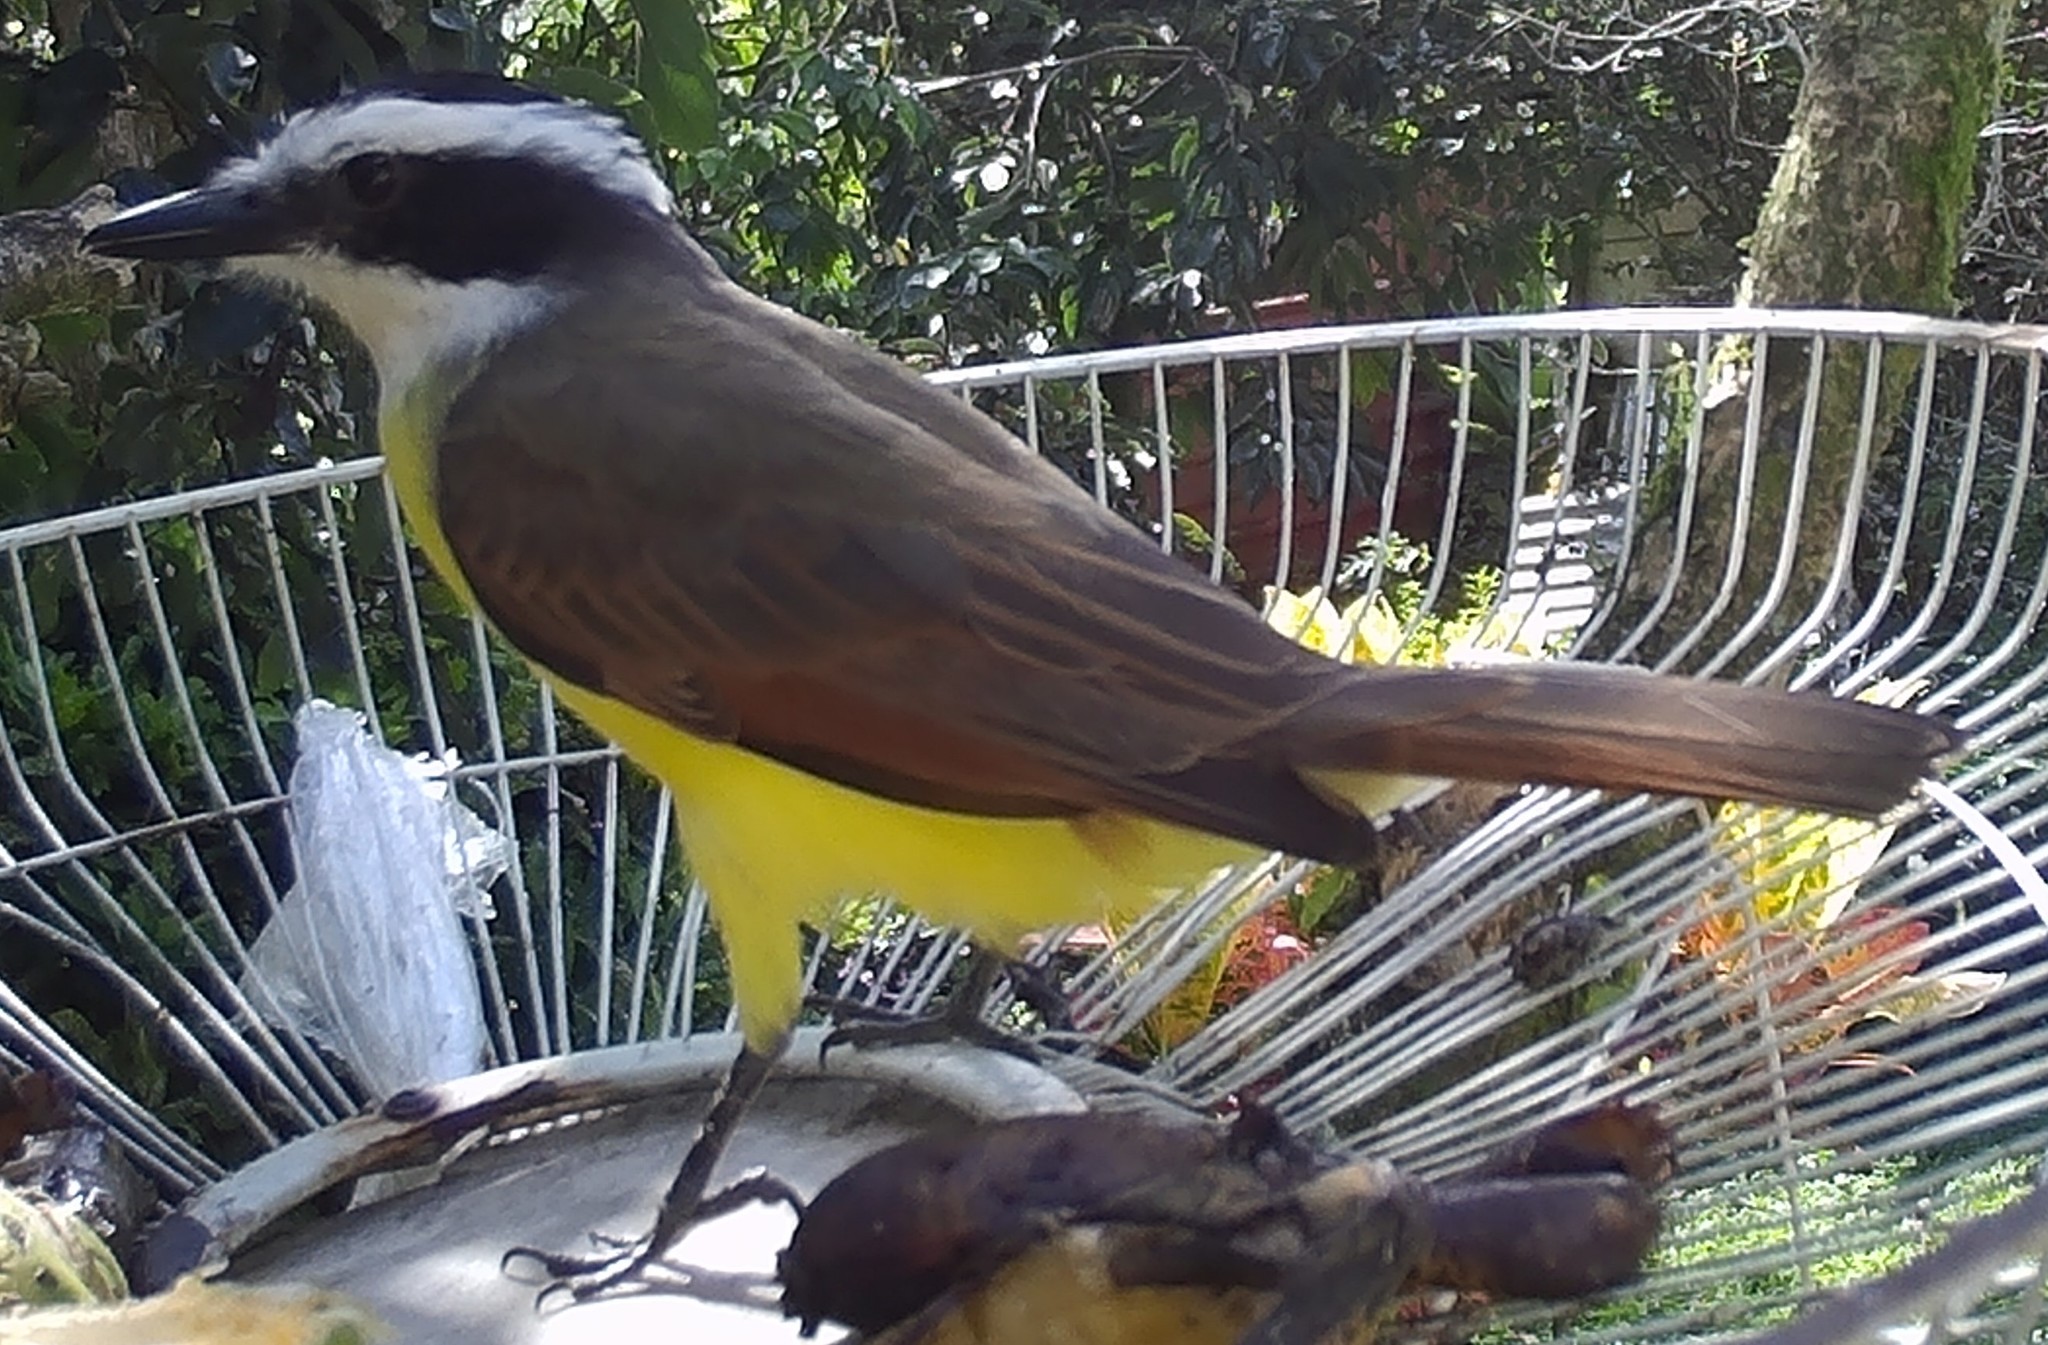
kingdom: Animalia
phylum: Chordata
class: Aves
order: Passeriformes
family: Tyrannidae
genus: Pitangus
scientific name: Pitangus sulphuratus
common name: Great kiskadee
